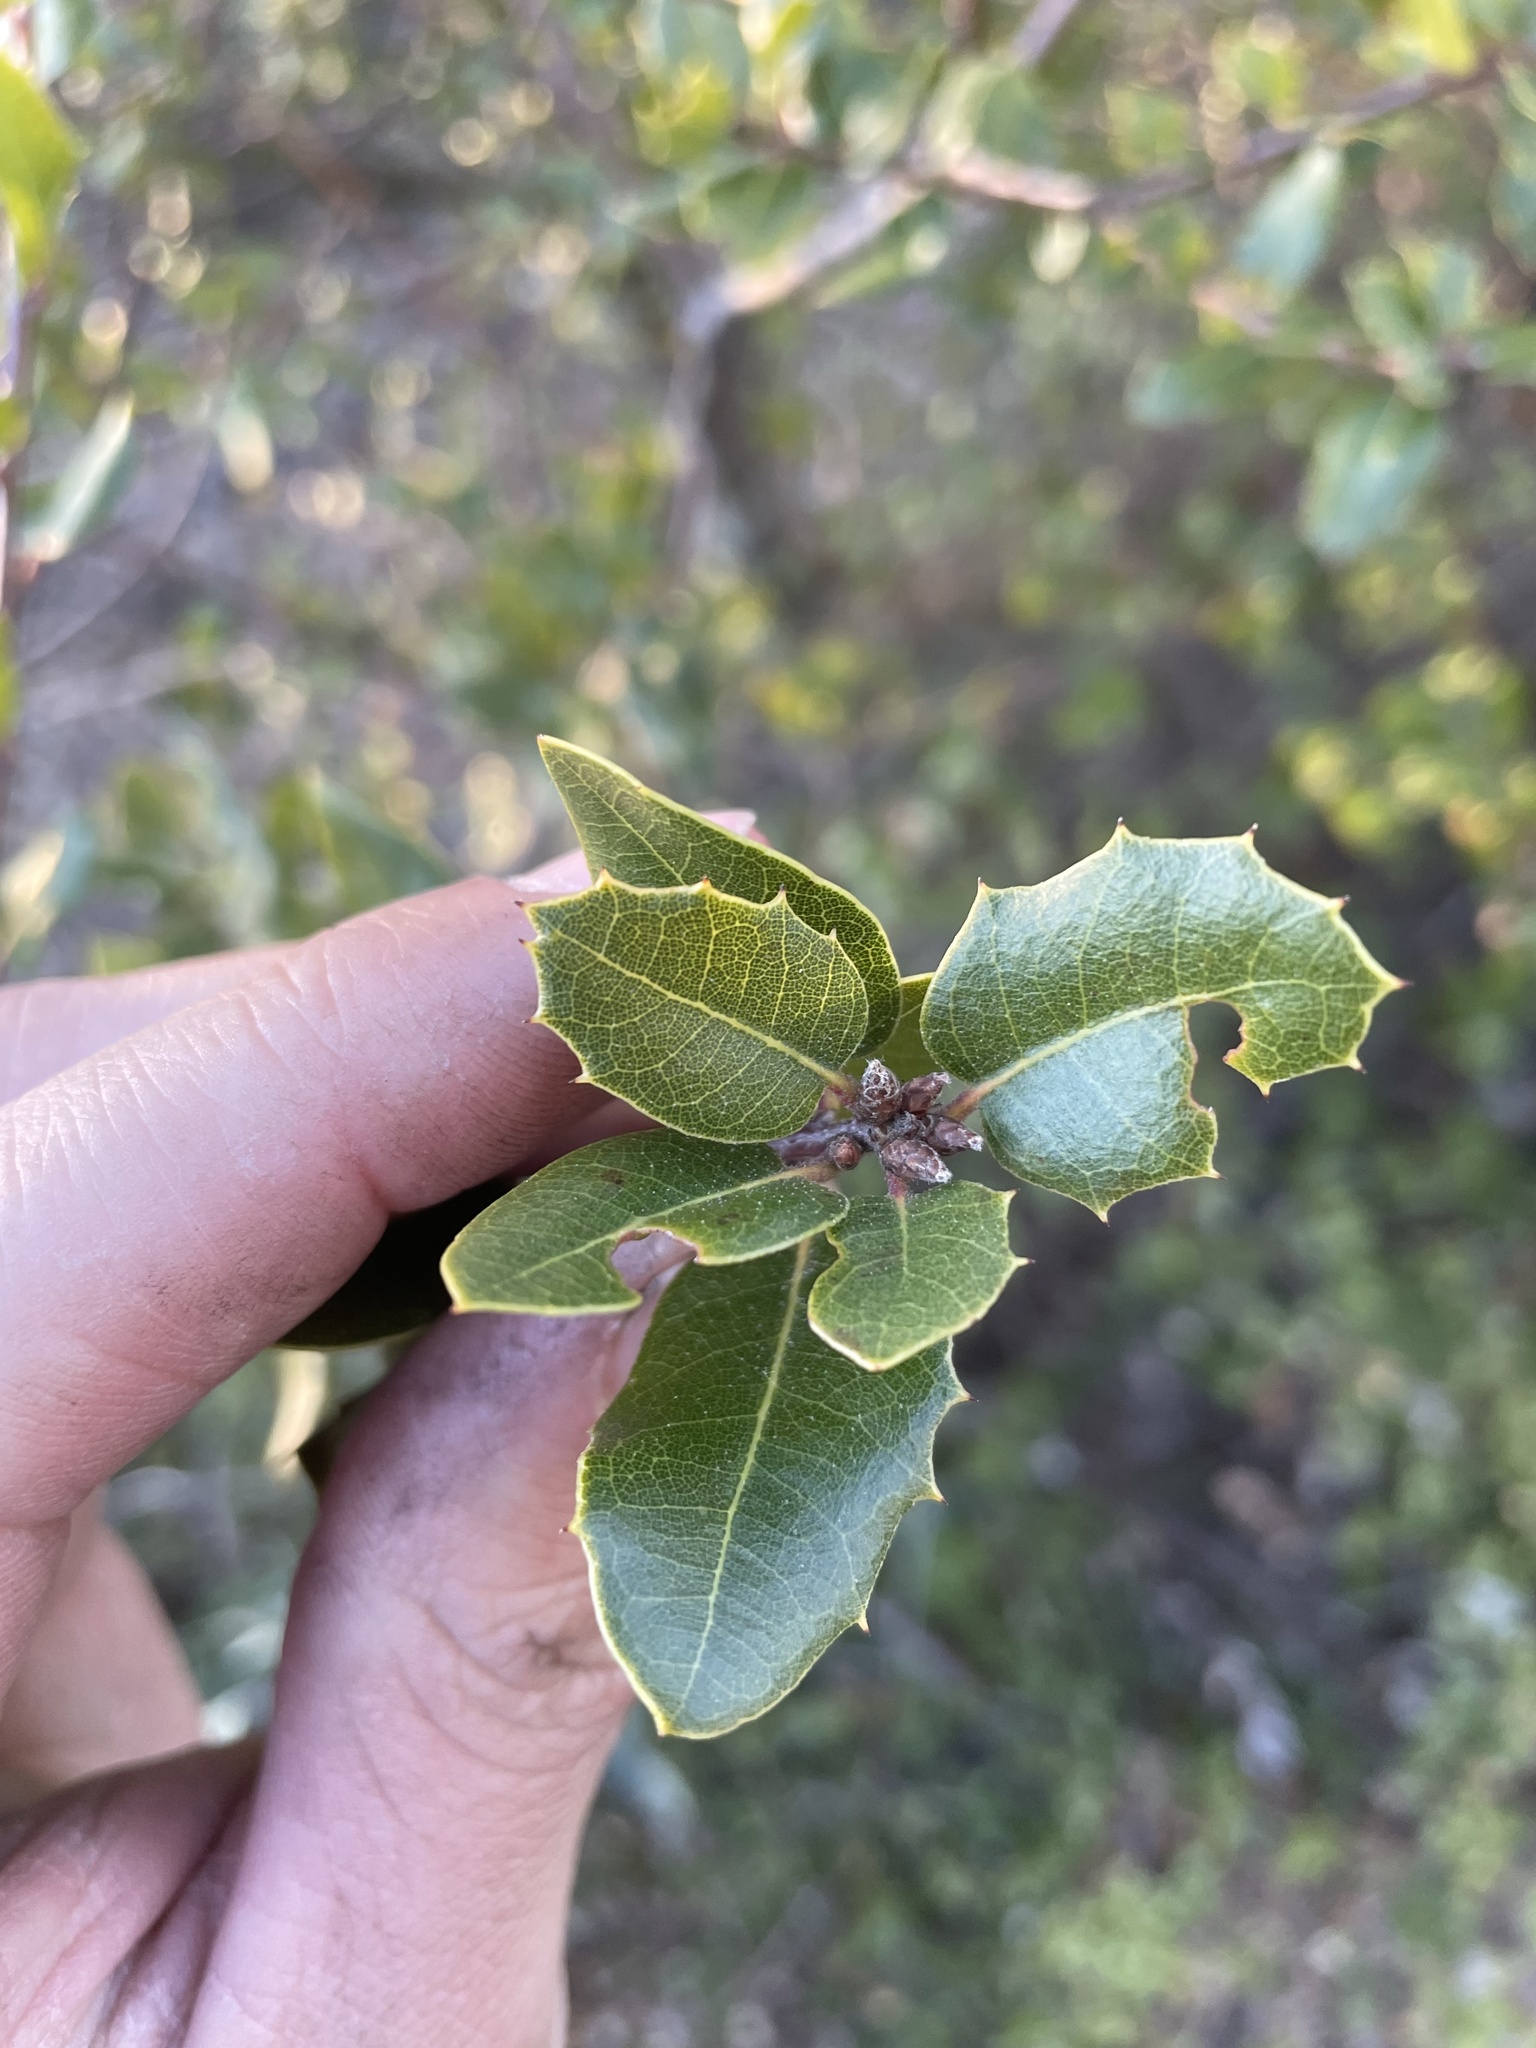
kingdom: Plantae
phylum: Tracheophyta
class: Magnoliopsida
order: Fagales
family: Fagaceae
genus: Quercus
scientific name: Quercus wislizeni
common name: Interior live oak
